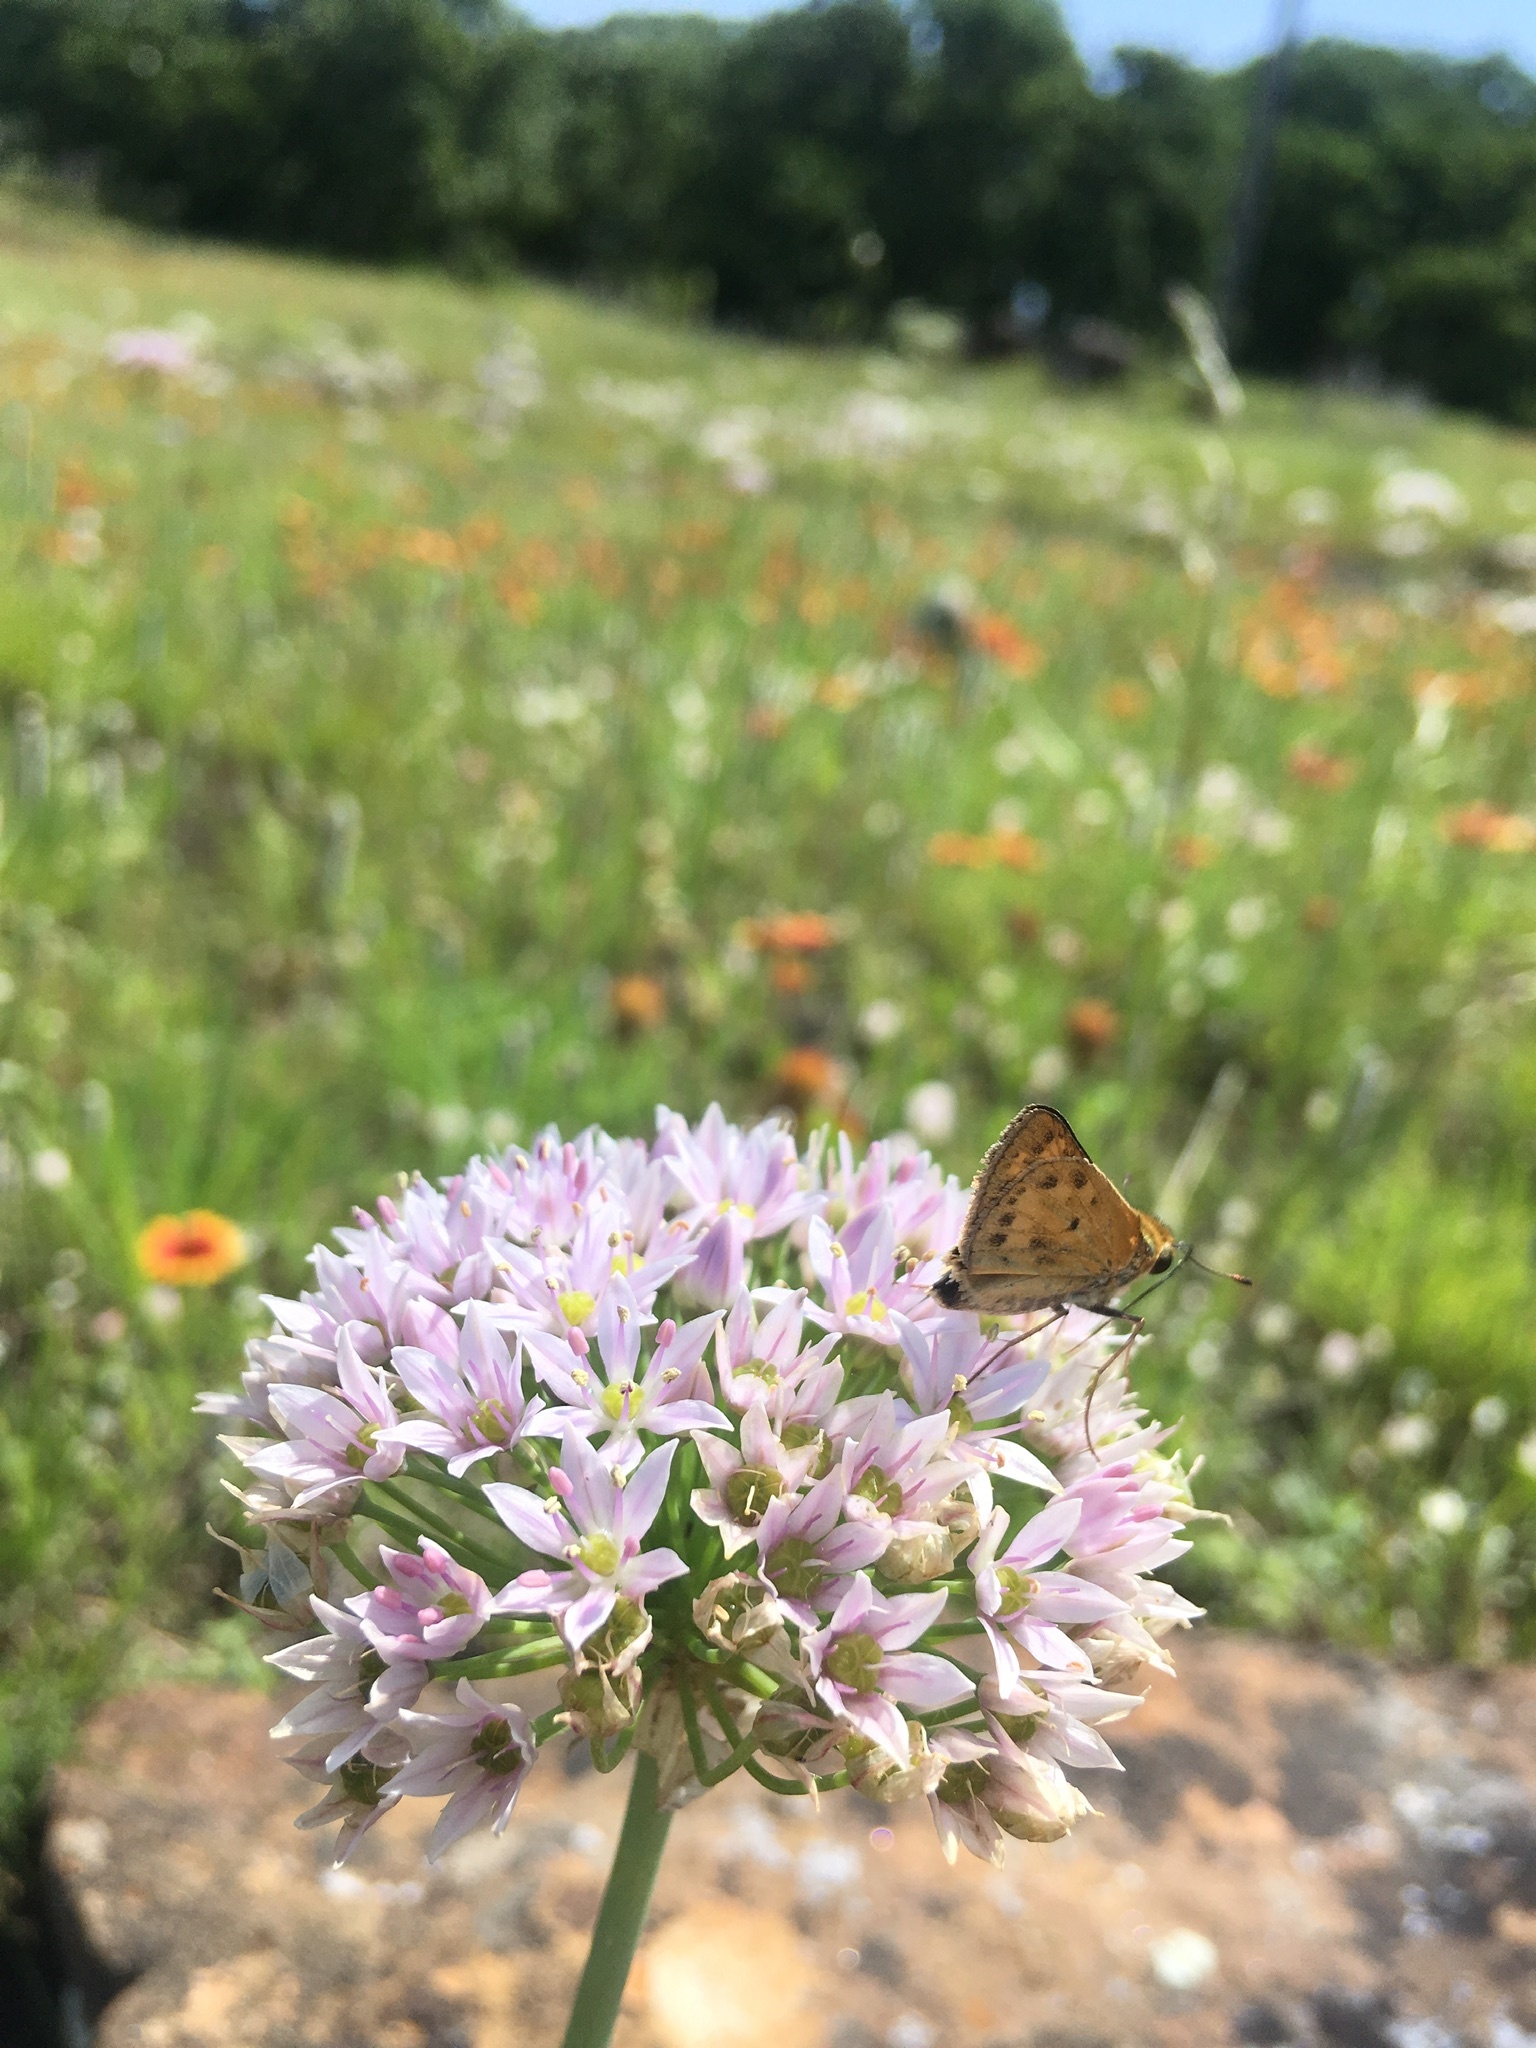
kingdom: Animalia
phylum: Arthropoda
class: Insecta
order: Lepidoptera
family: Hesperiidae
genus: Hylephila
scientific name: Hylephila phyleus
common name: Fiery skipper
